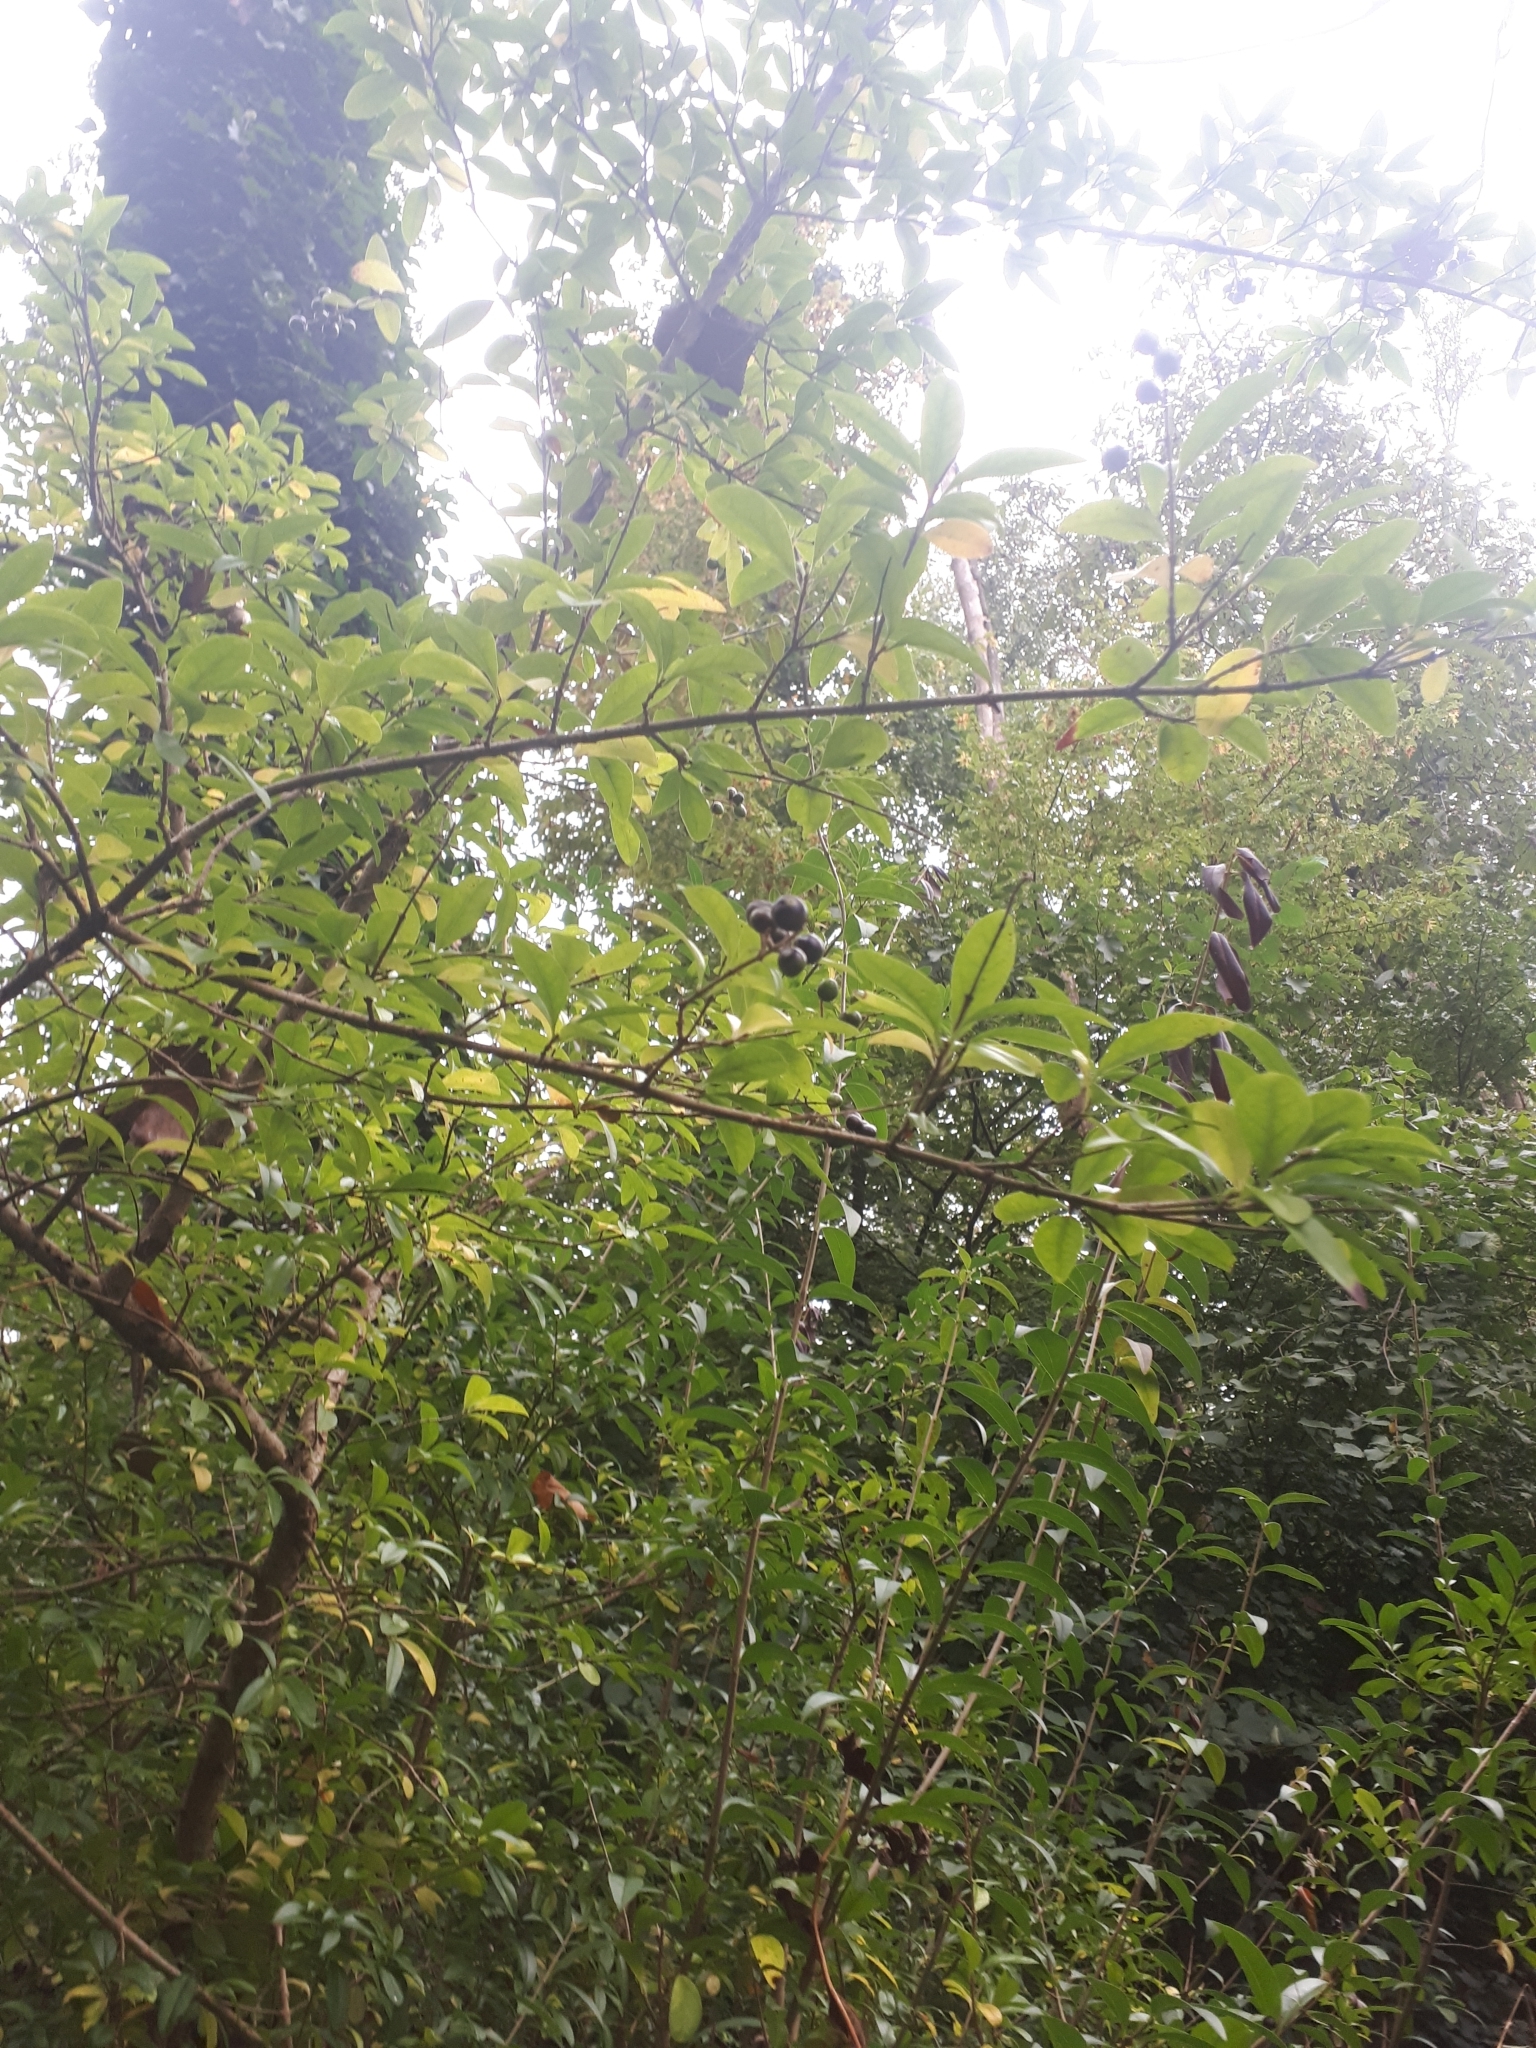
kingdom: Plantae
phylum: Tracheophyta
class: Magnoliopsida
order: Lamiales
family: Oleaceae
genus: Ligustrum
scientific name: Ligustrum vulgare
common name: Wild privet
